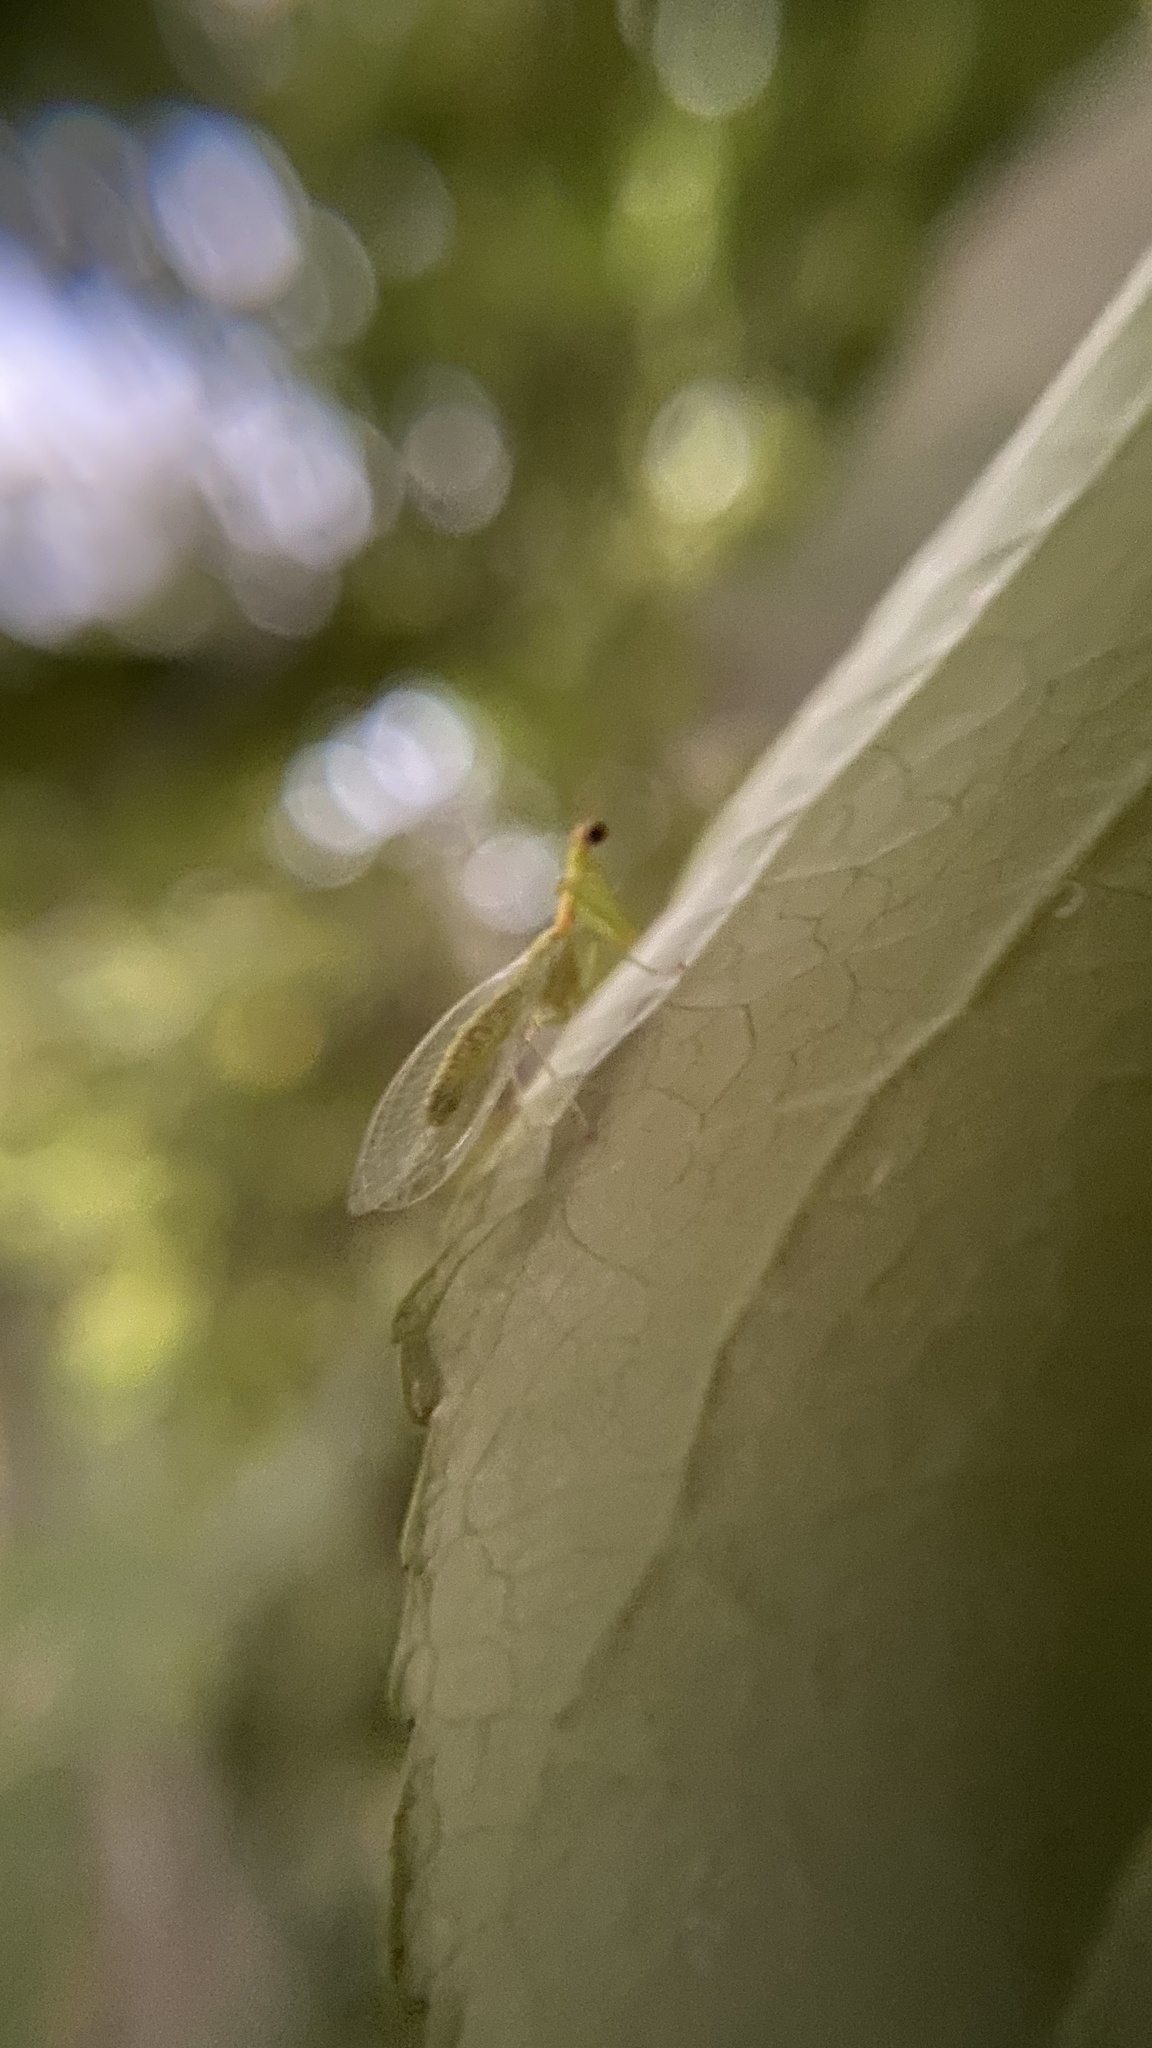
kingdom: Animalia
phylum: Arthropoda
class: Insecta
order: Neuroptera
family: Mantispidae
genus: Zeugomantispa
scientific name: Zeugomantispa minuta
